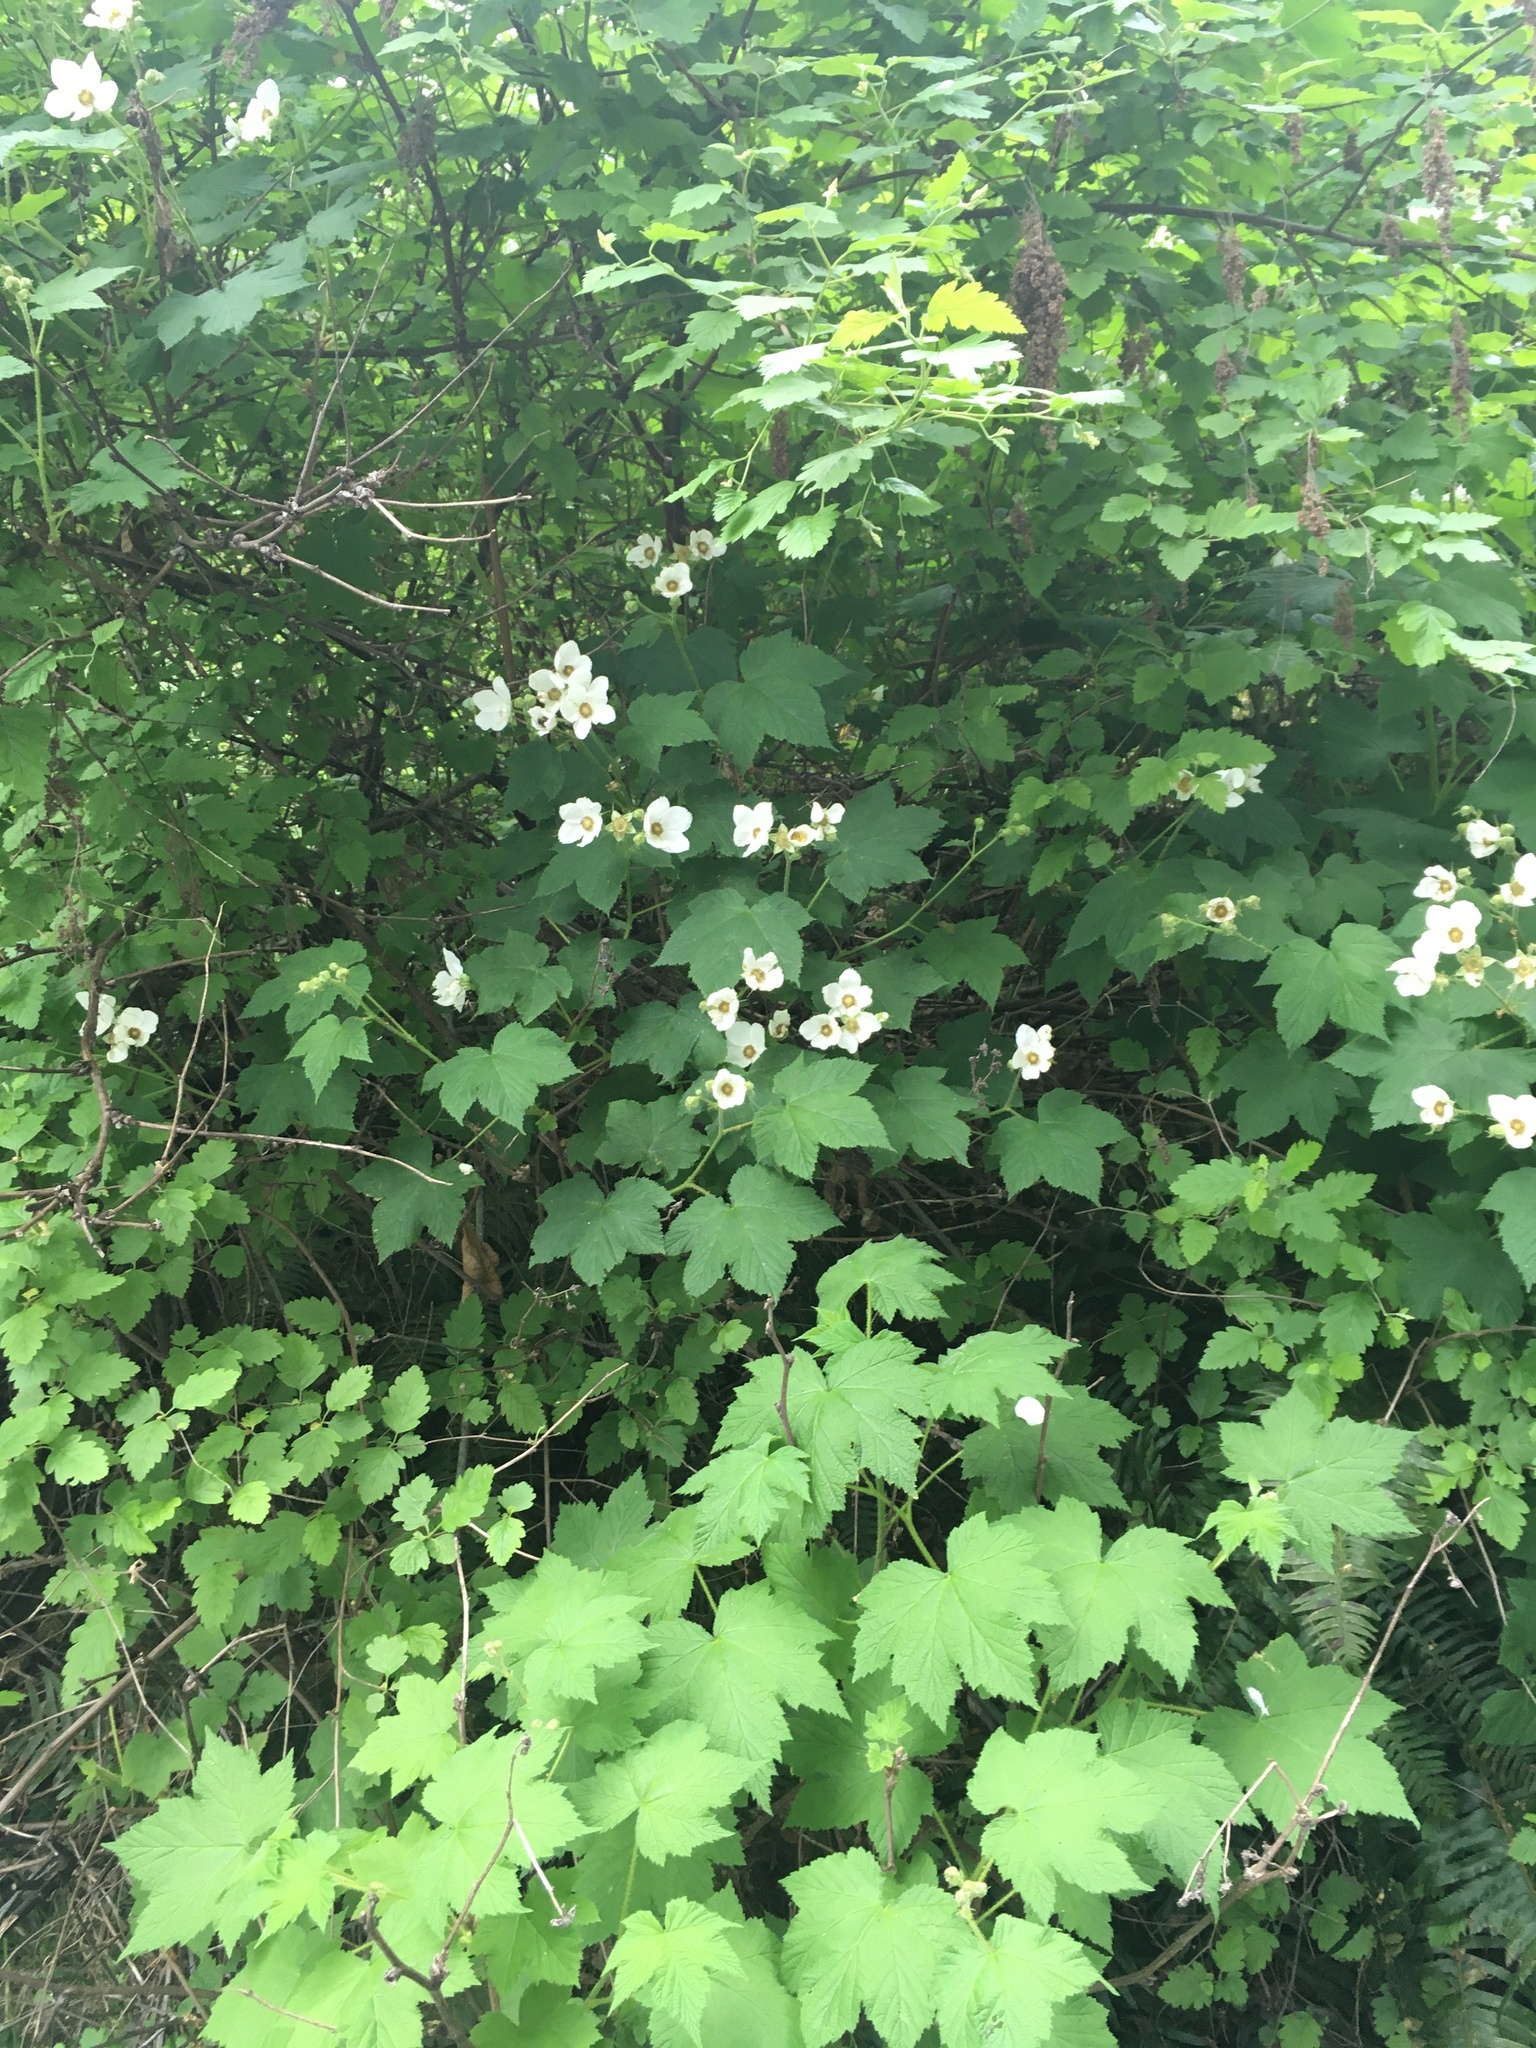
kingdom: Plantae
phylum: Tracheophyta
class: Magnoliopsida
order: Rosales
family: Rosaceae
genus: Rubus
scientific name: Rubus parviflorus
